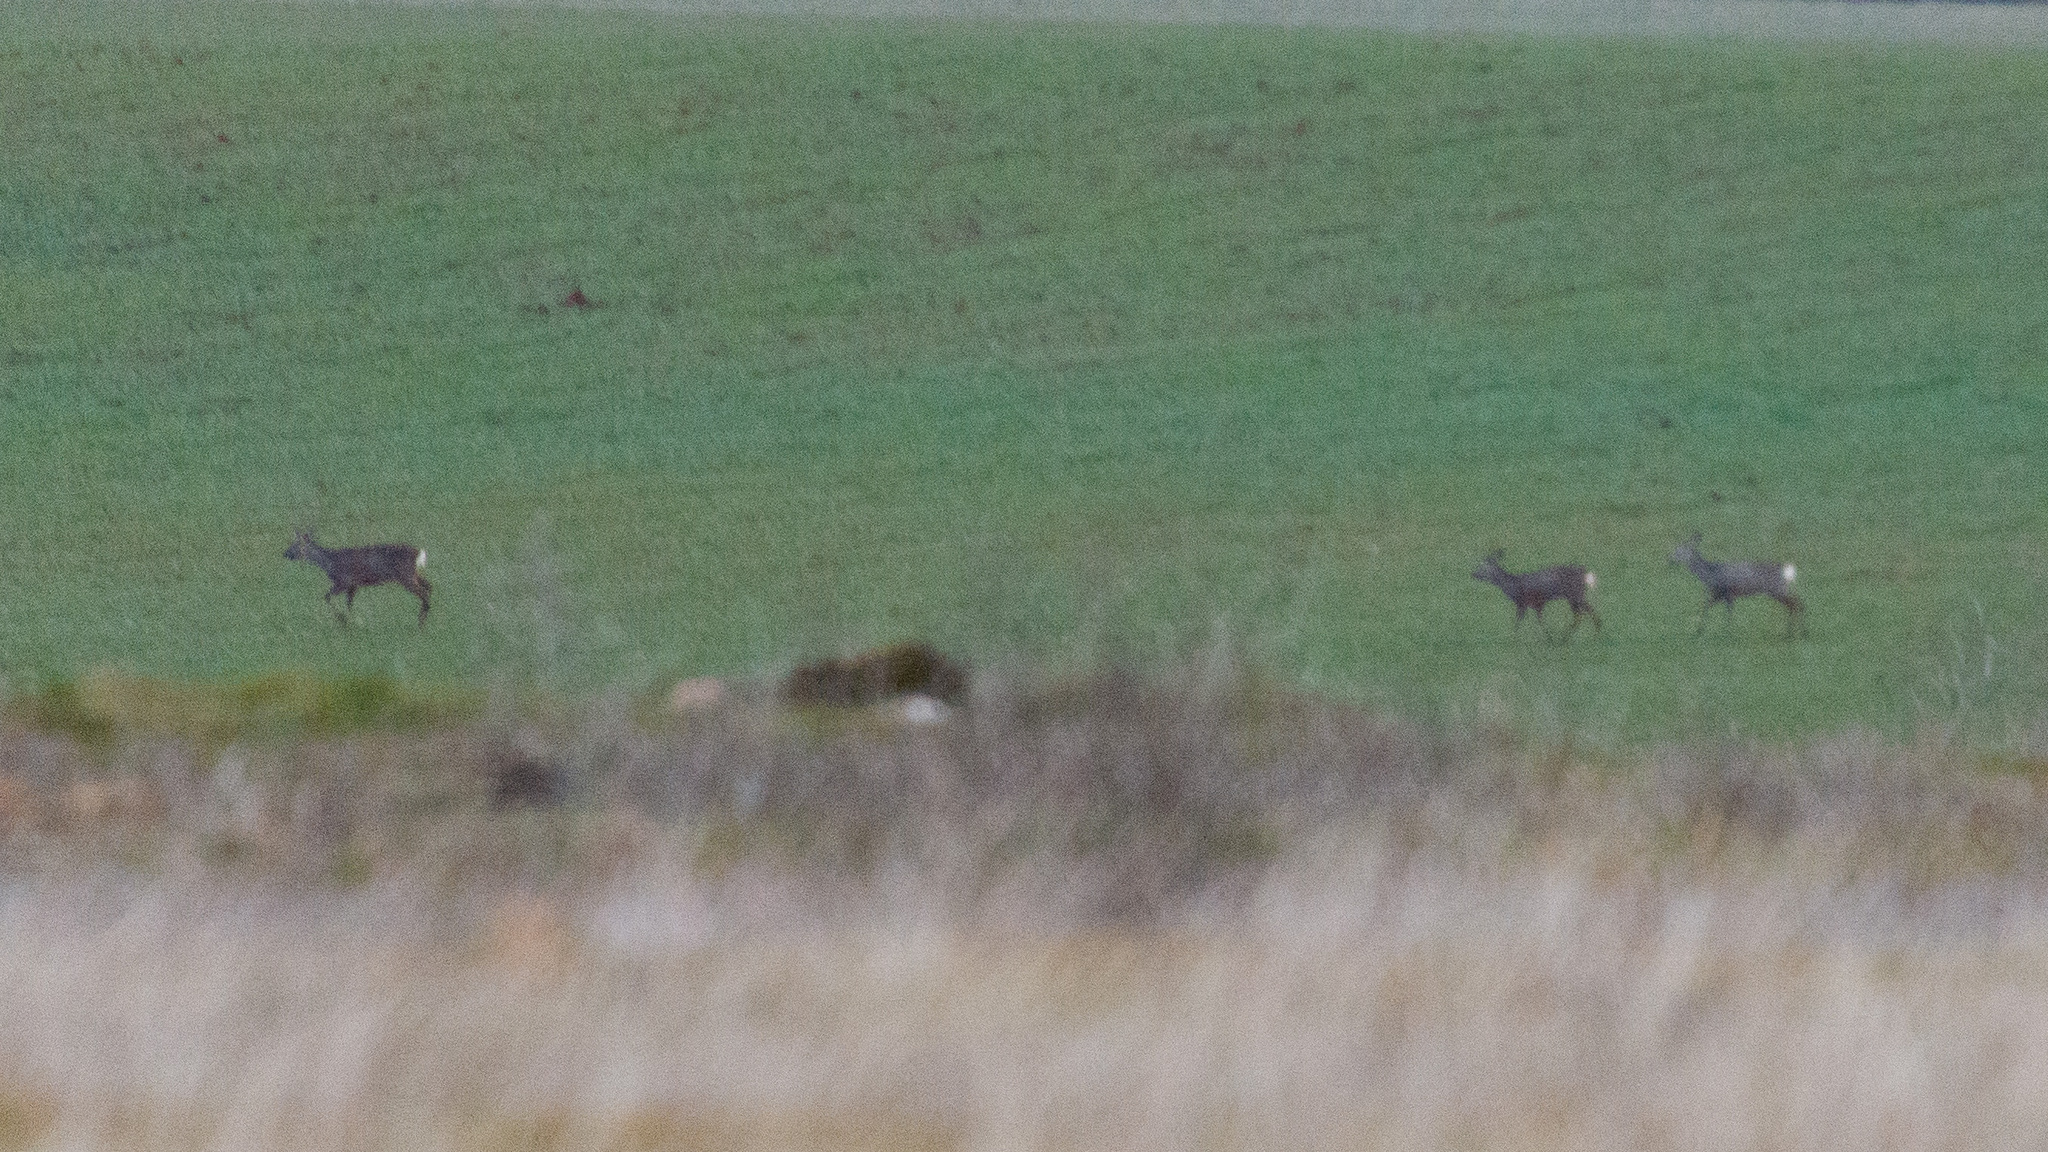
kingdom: Animalia
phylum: Chordata
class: Mammalia
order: Artiodactyla
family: Cervidae
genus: Capreolus
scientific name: Capreolus capreolus
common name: Western roe deer
